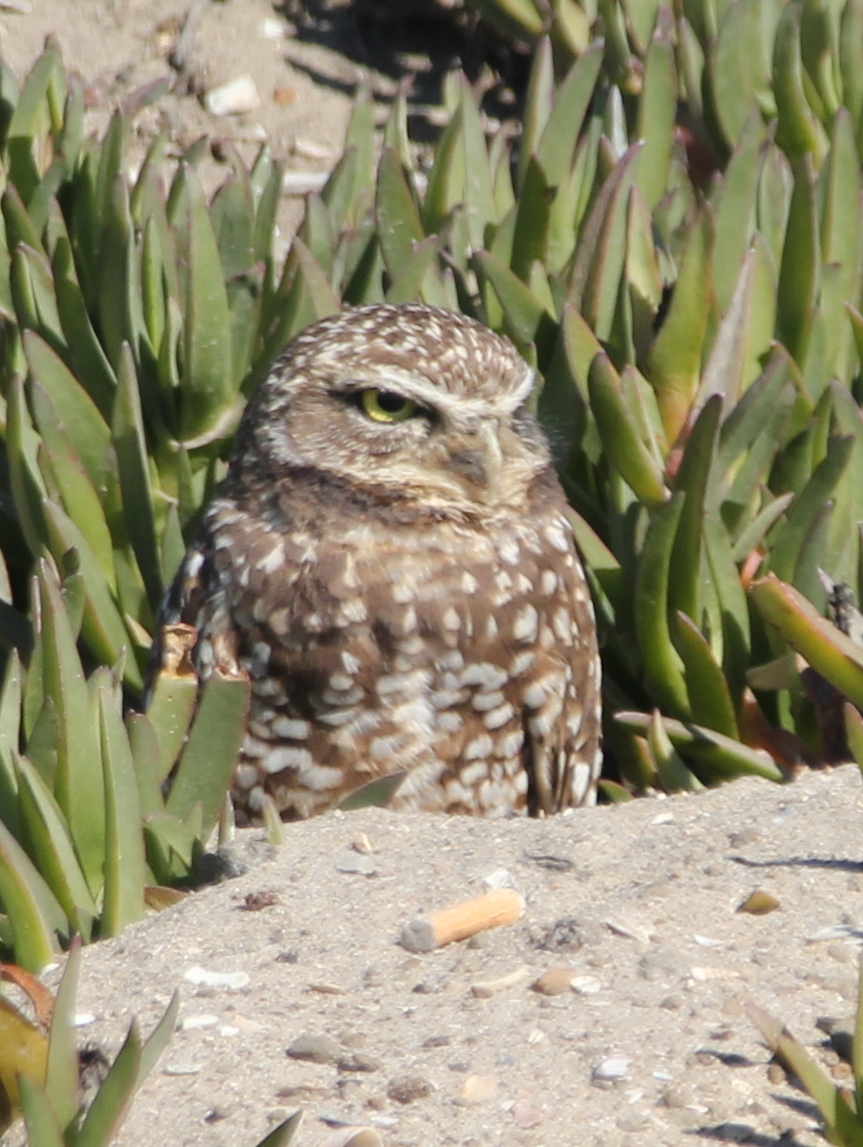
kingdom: Animalia
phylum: Chordata
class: Aves
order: Strigiformes
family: Strigidae
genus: Athene
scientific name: Athene cunicularia
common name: Burrowing owl
